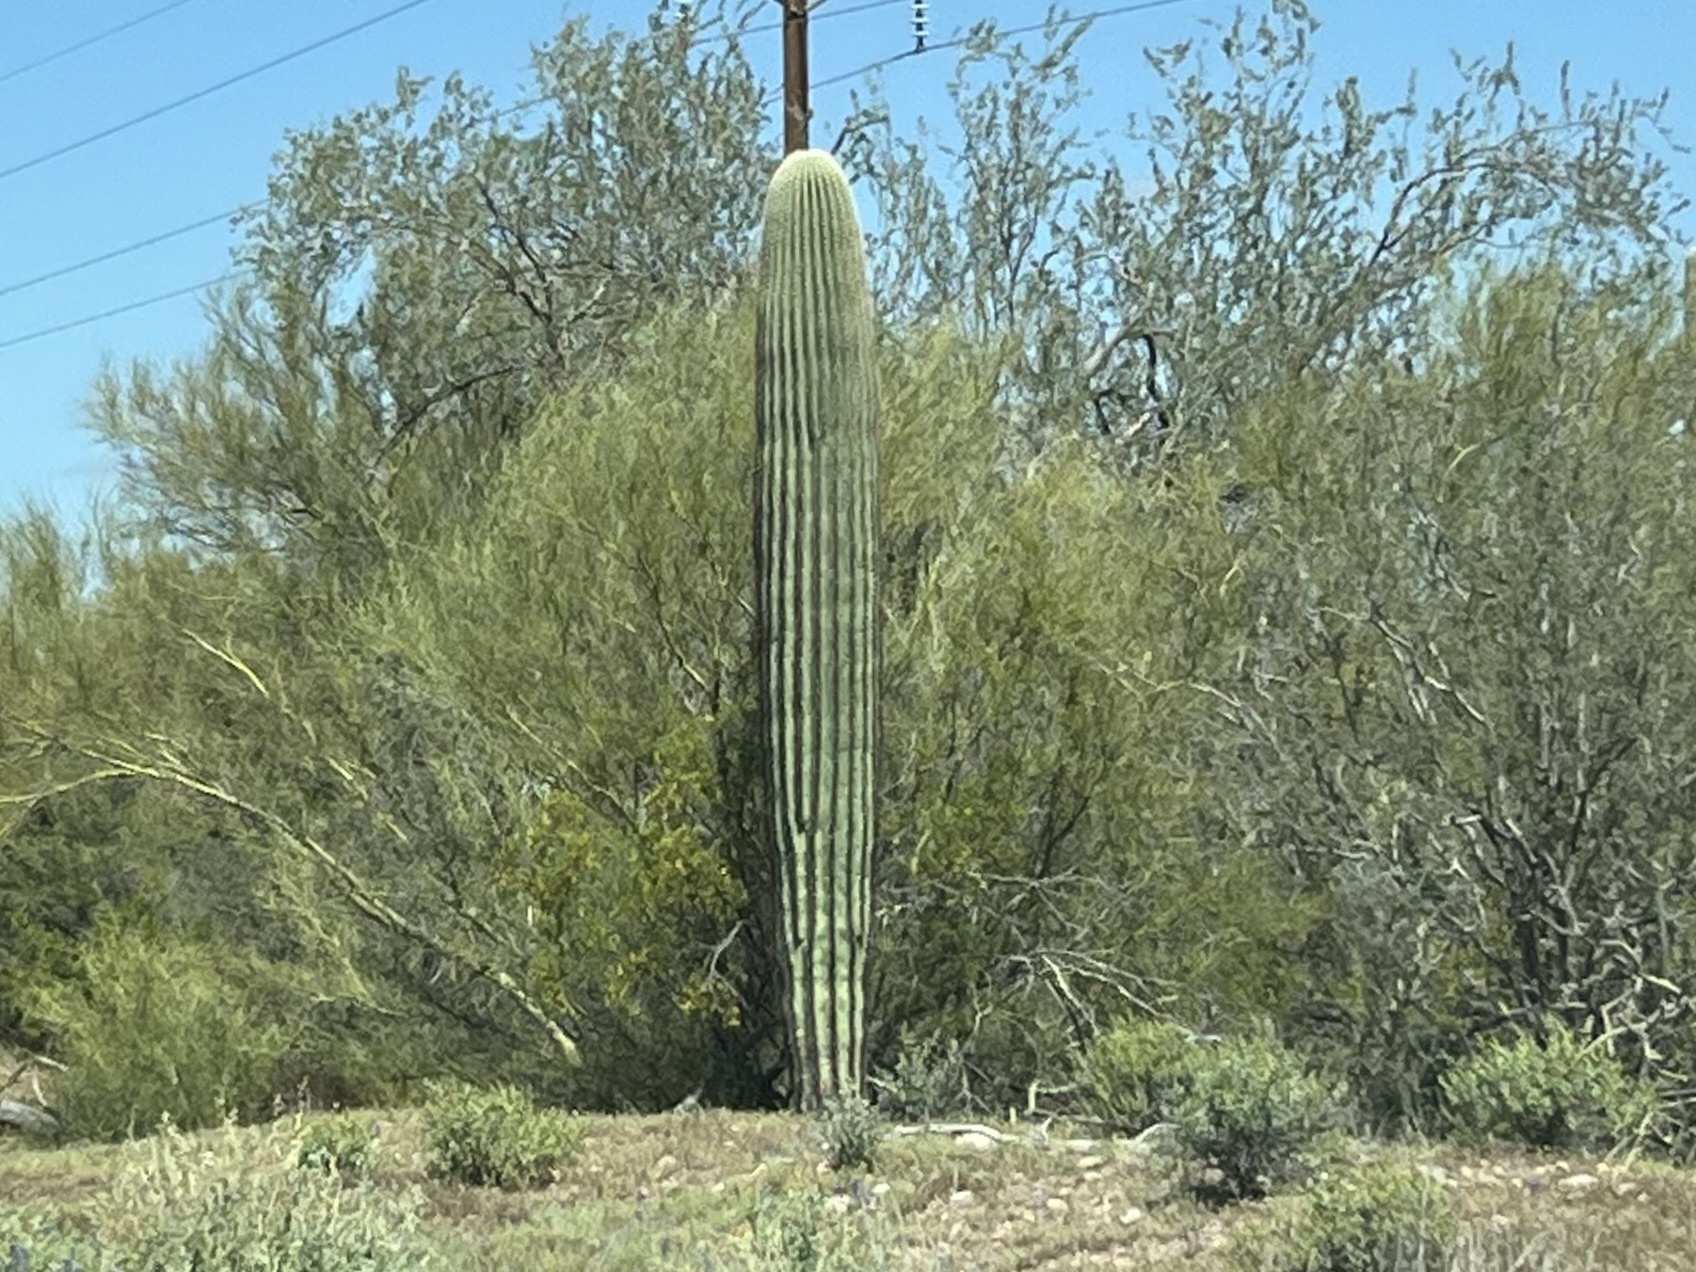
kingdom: Plantae
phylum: Tracheophyta
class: Magnoliopsida
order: Caryophyllales
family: Cactaceae
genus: Carnegiea
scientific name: Carnegiea gigantea
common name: Saguaro
